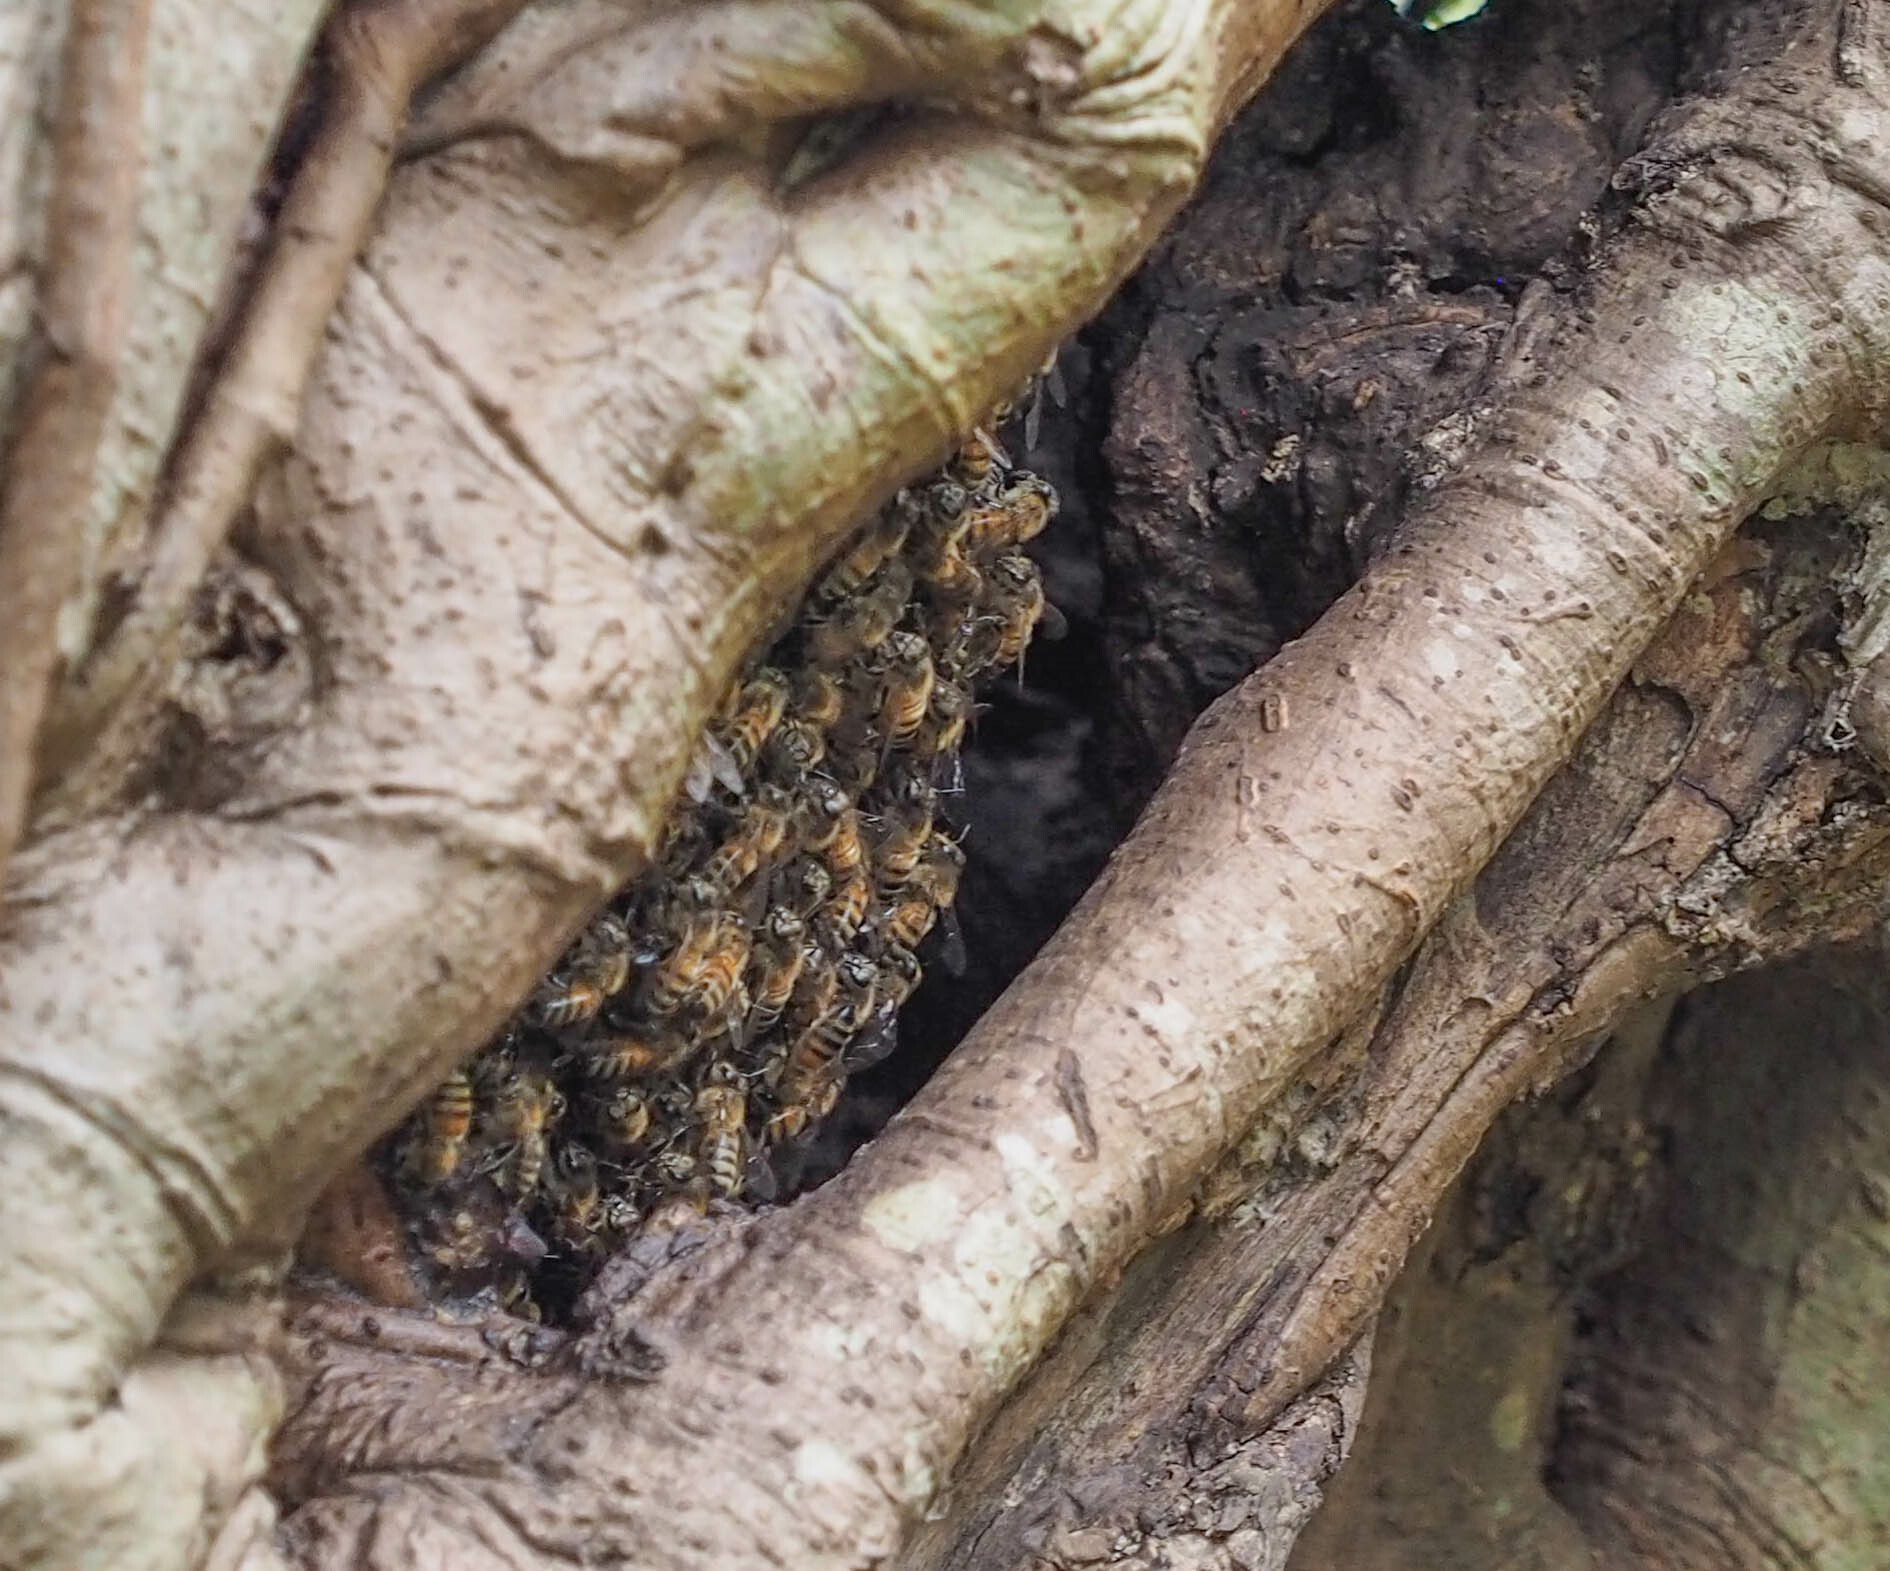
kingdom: Animalia
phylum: Arthropoda
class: Insecta
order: Hymenoptera
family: Apidae
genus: Apis
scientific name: Apis mellifera
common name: Honey bee
